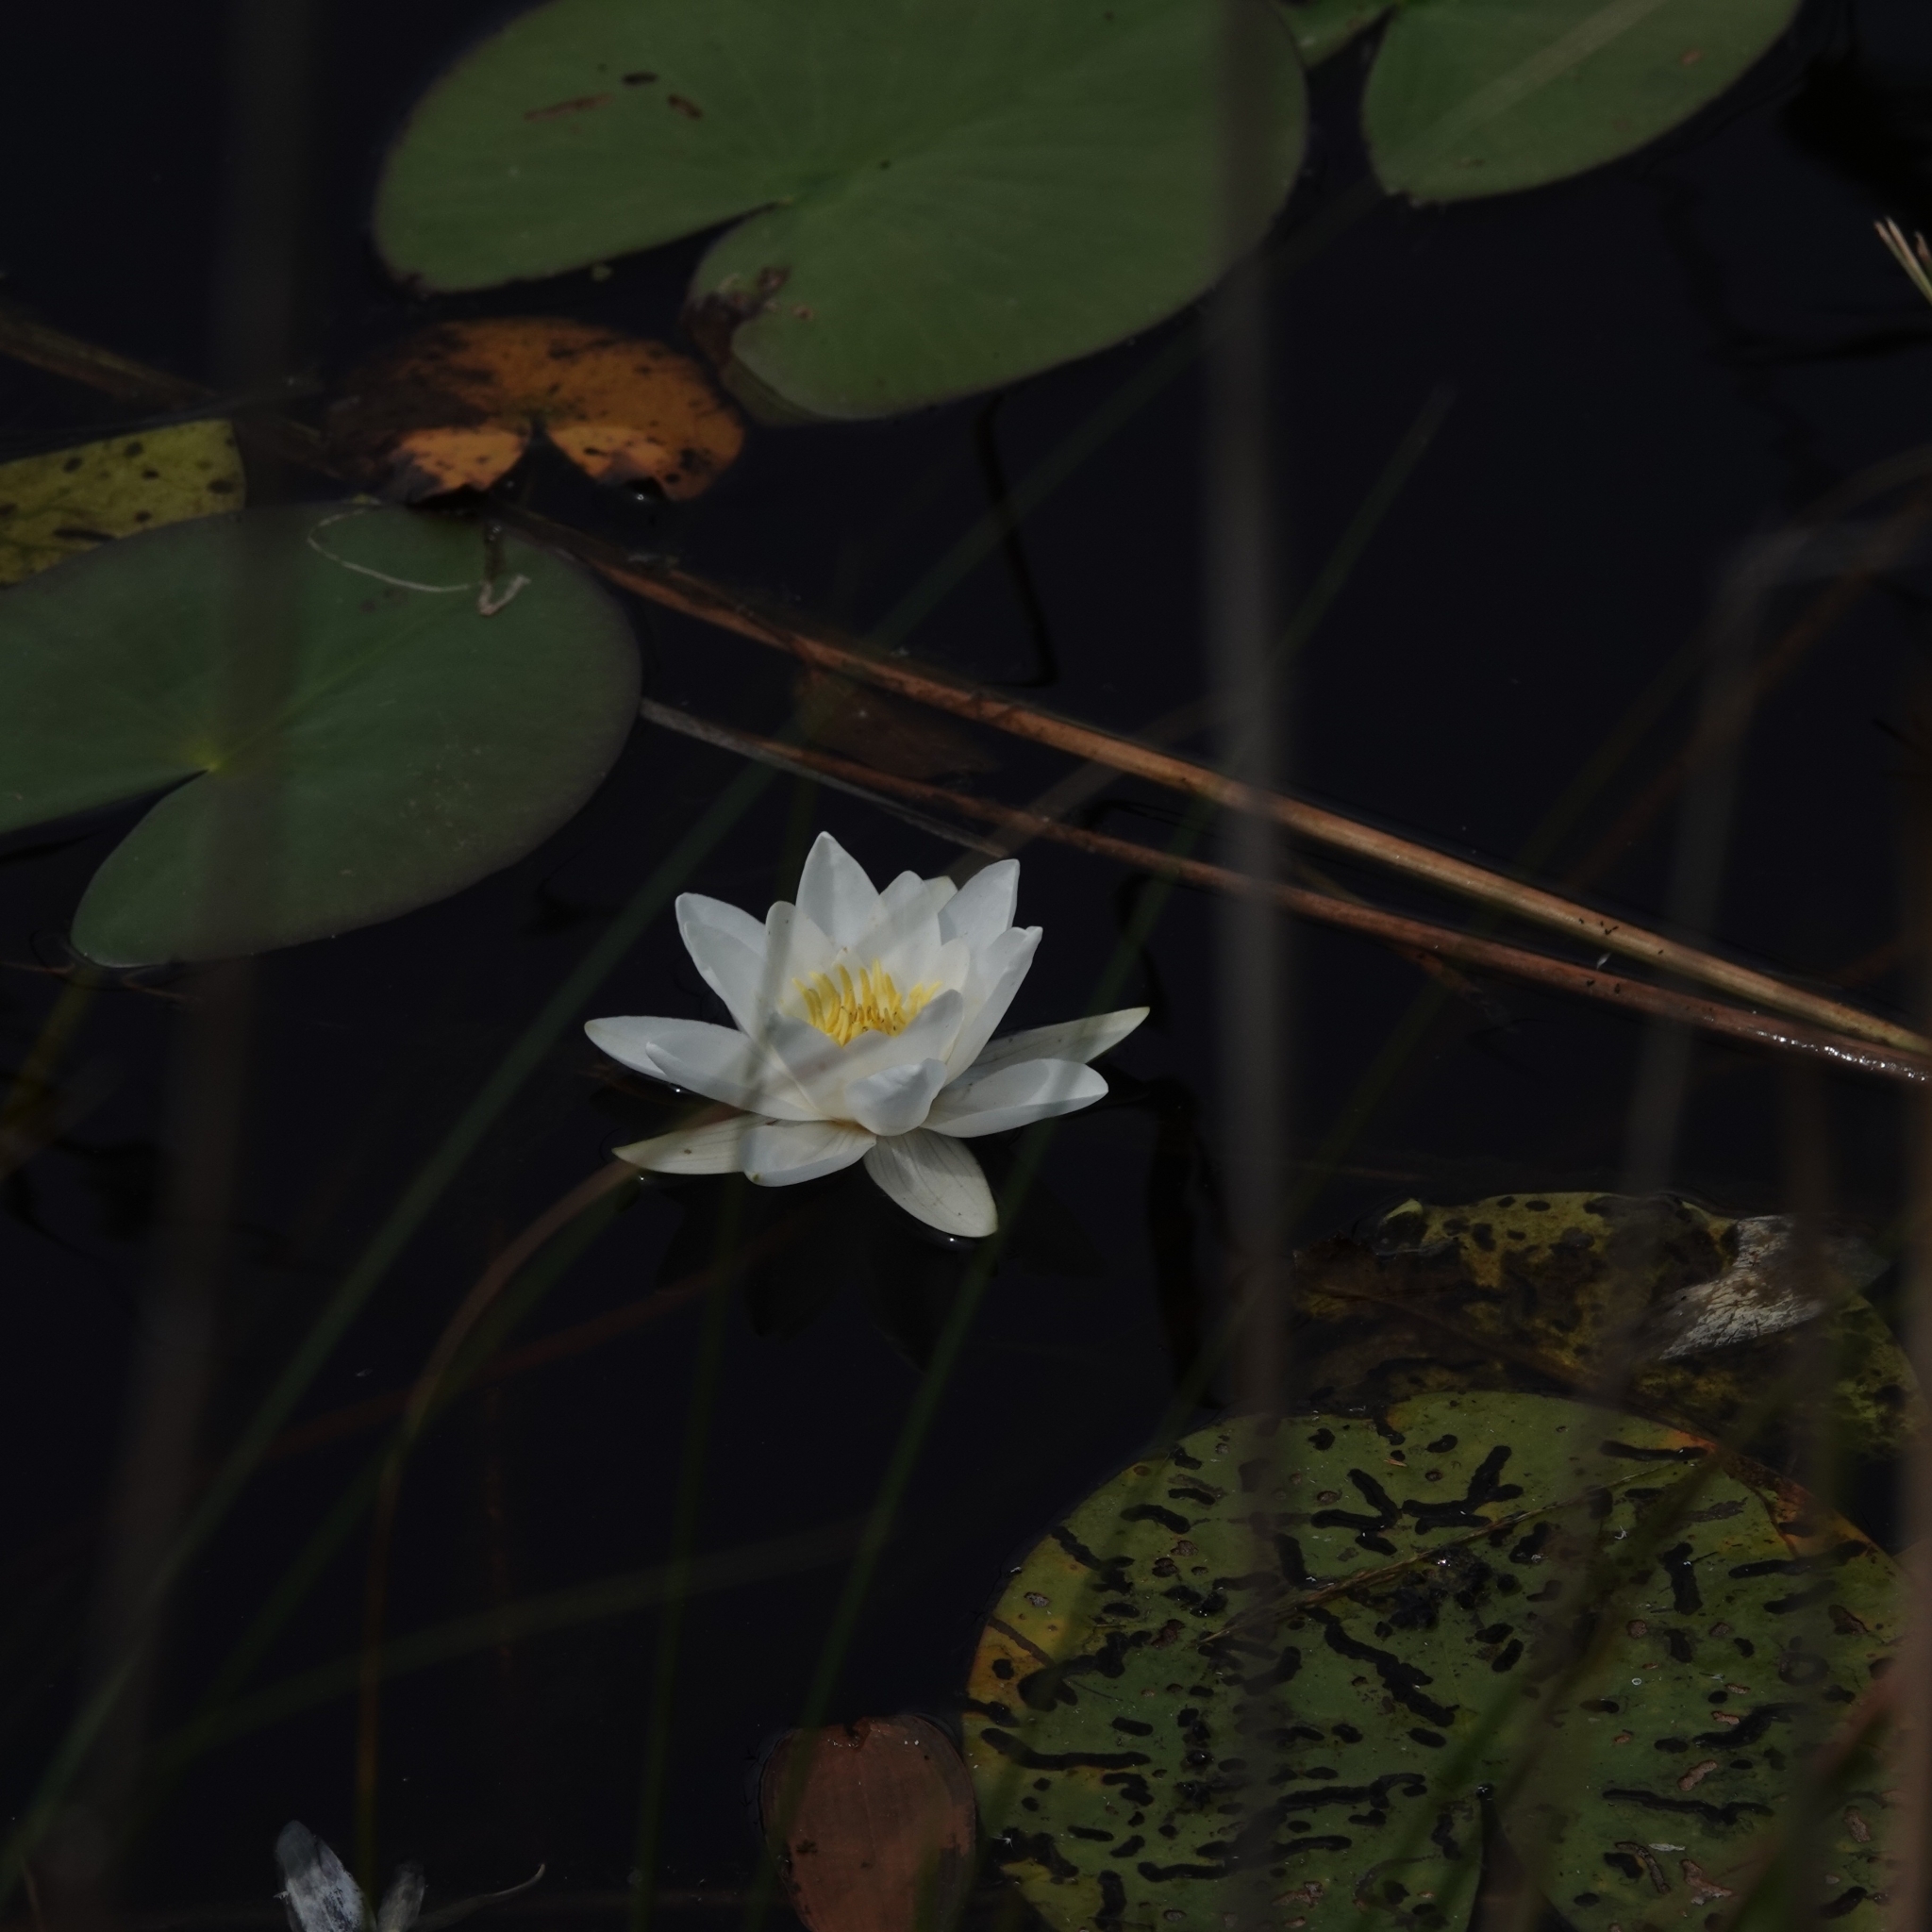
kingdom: Plantae
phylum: Tracheophyta
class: Magnoliopsida
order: Nymphaeales
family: Nymphaeaceae
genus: Nymphaea
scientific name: Nymphaea alba
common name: White water-lily
